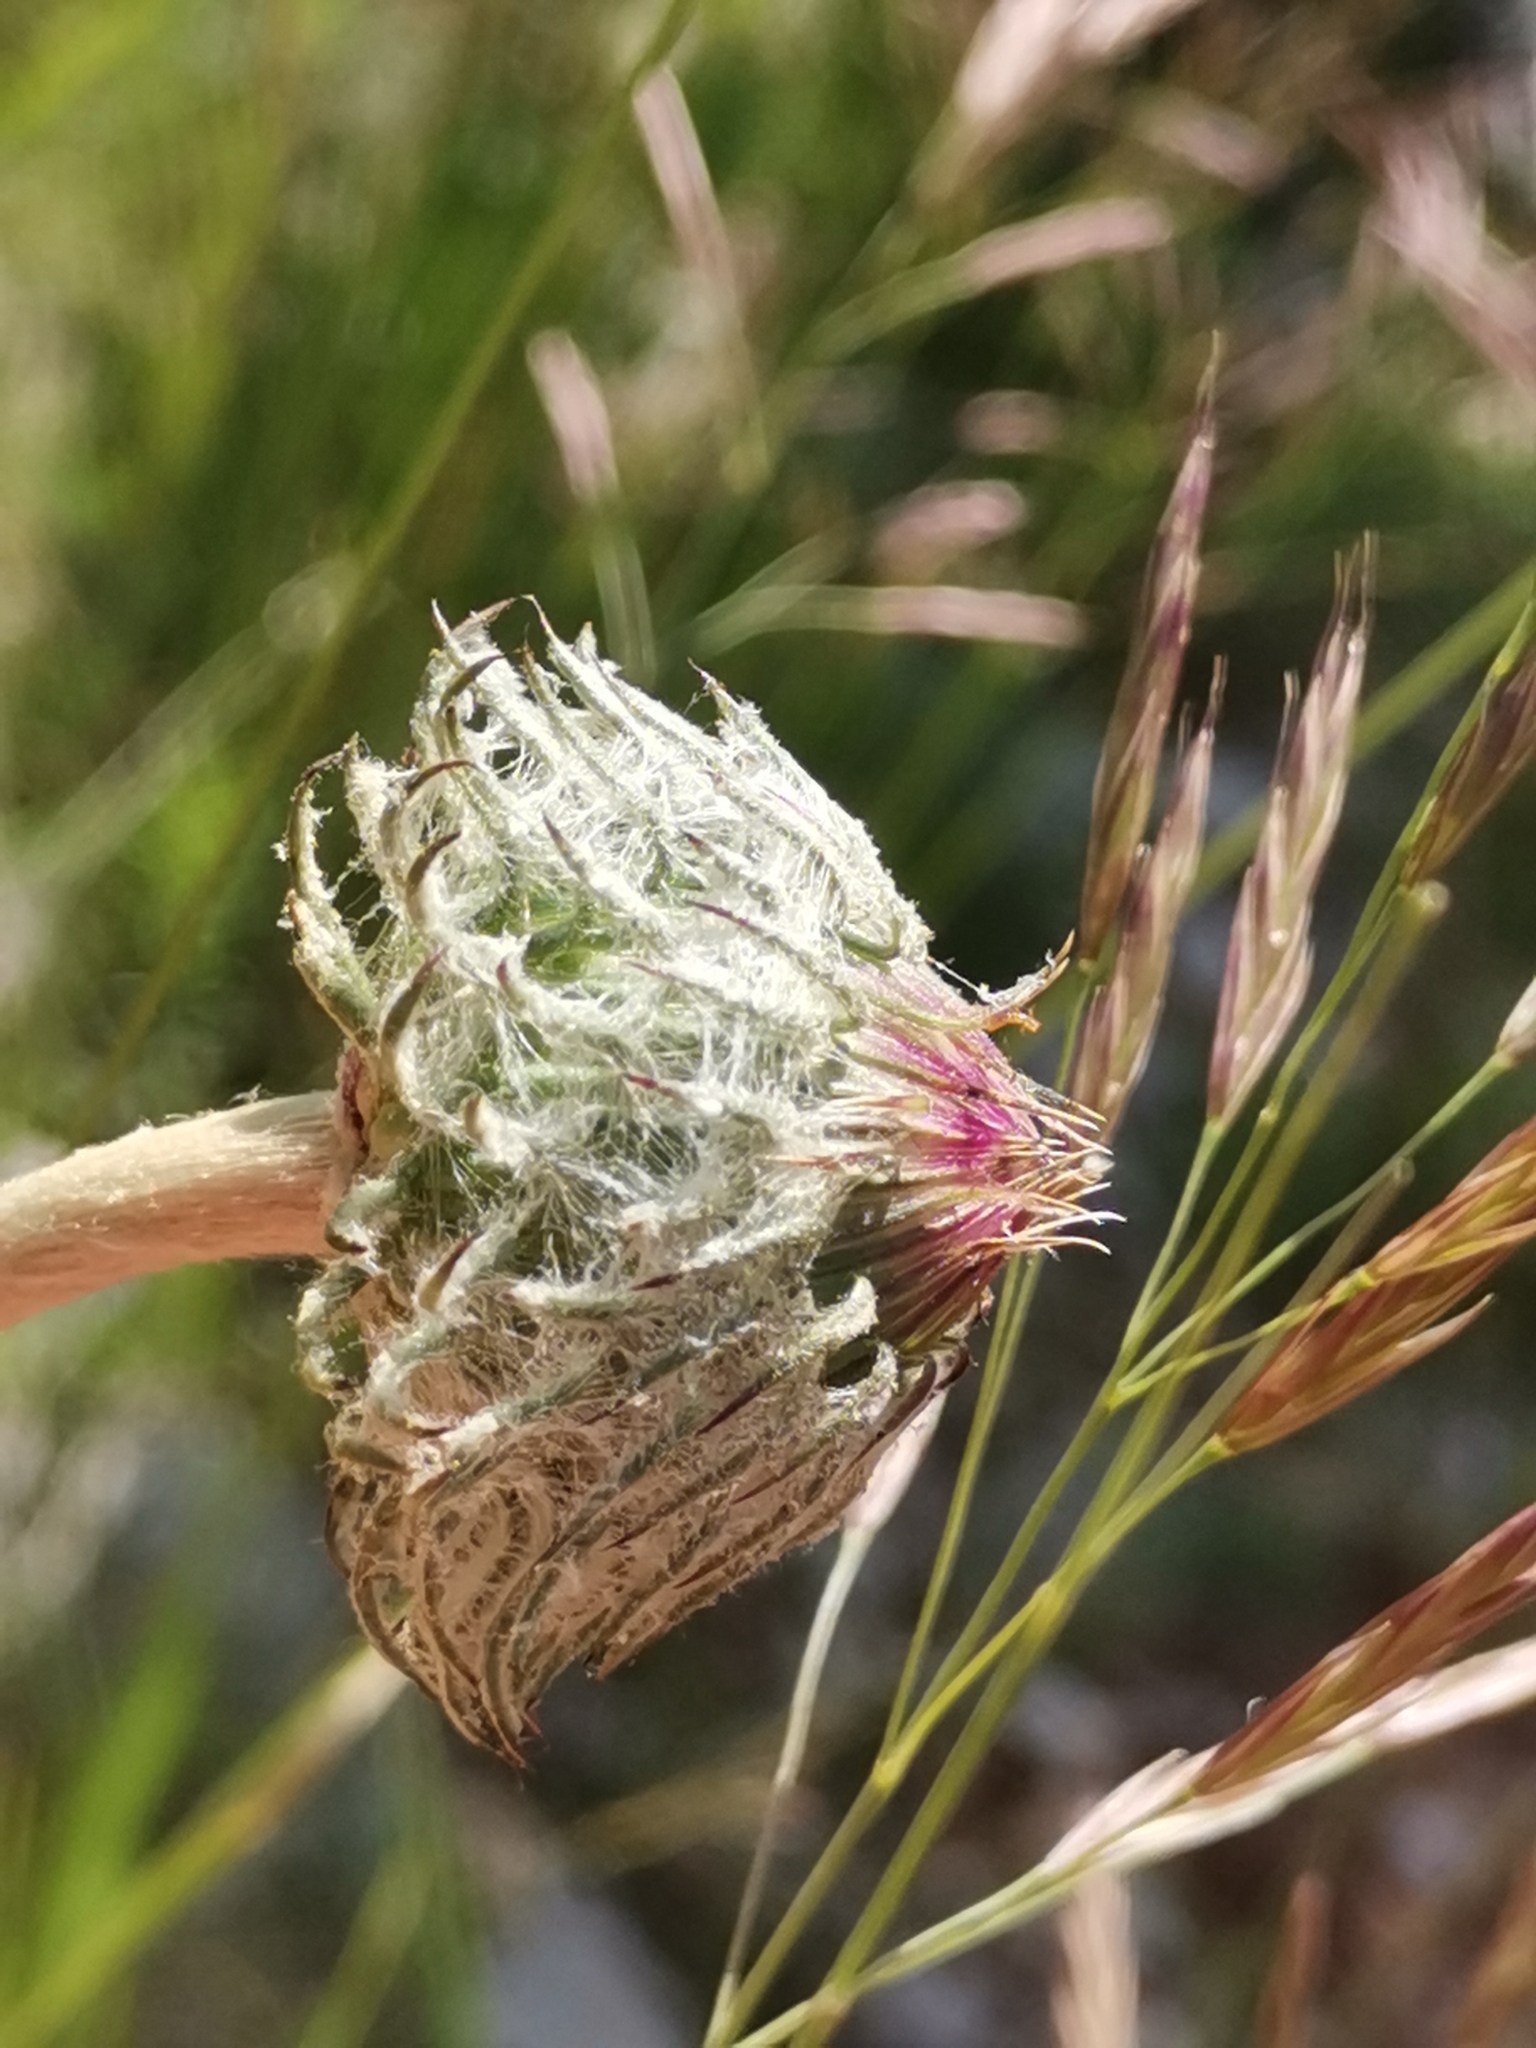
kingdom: Plantae
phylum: Tracheophyta
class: Magnoliopsida
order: Asterales
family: Asteraceae
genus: Jurinea
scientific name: Jurinea mollis
